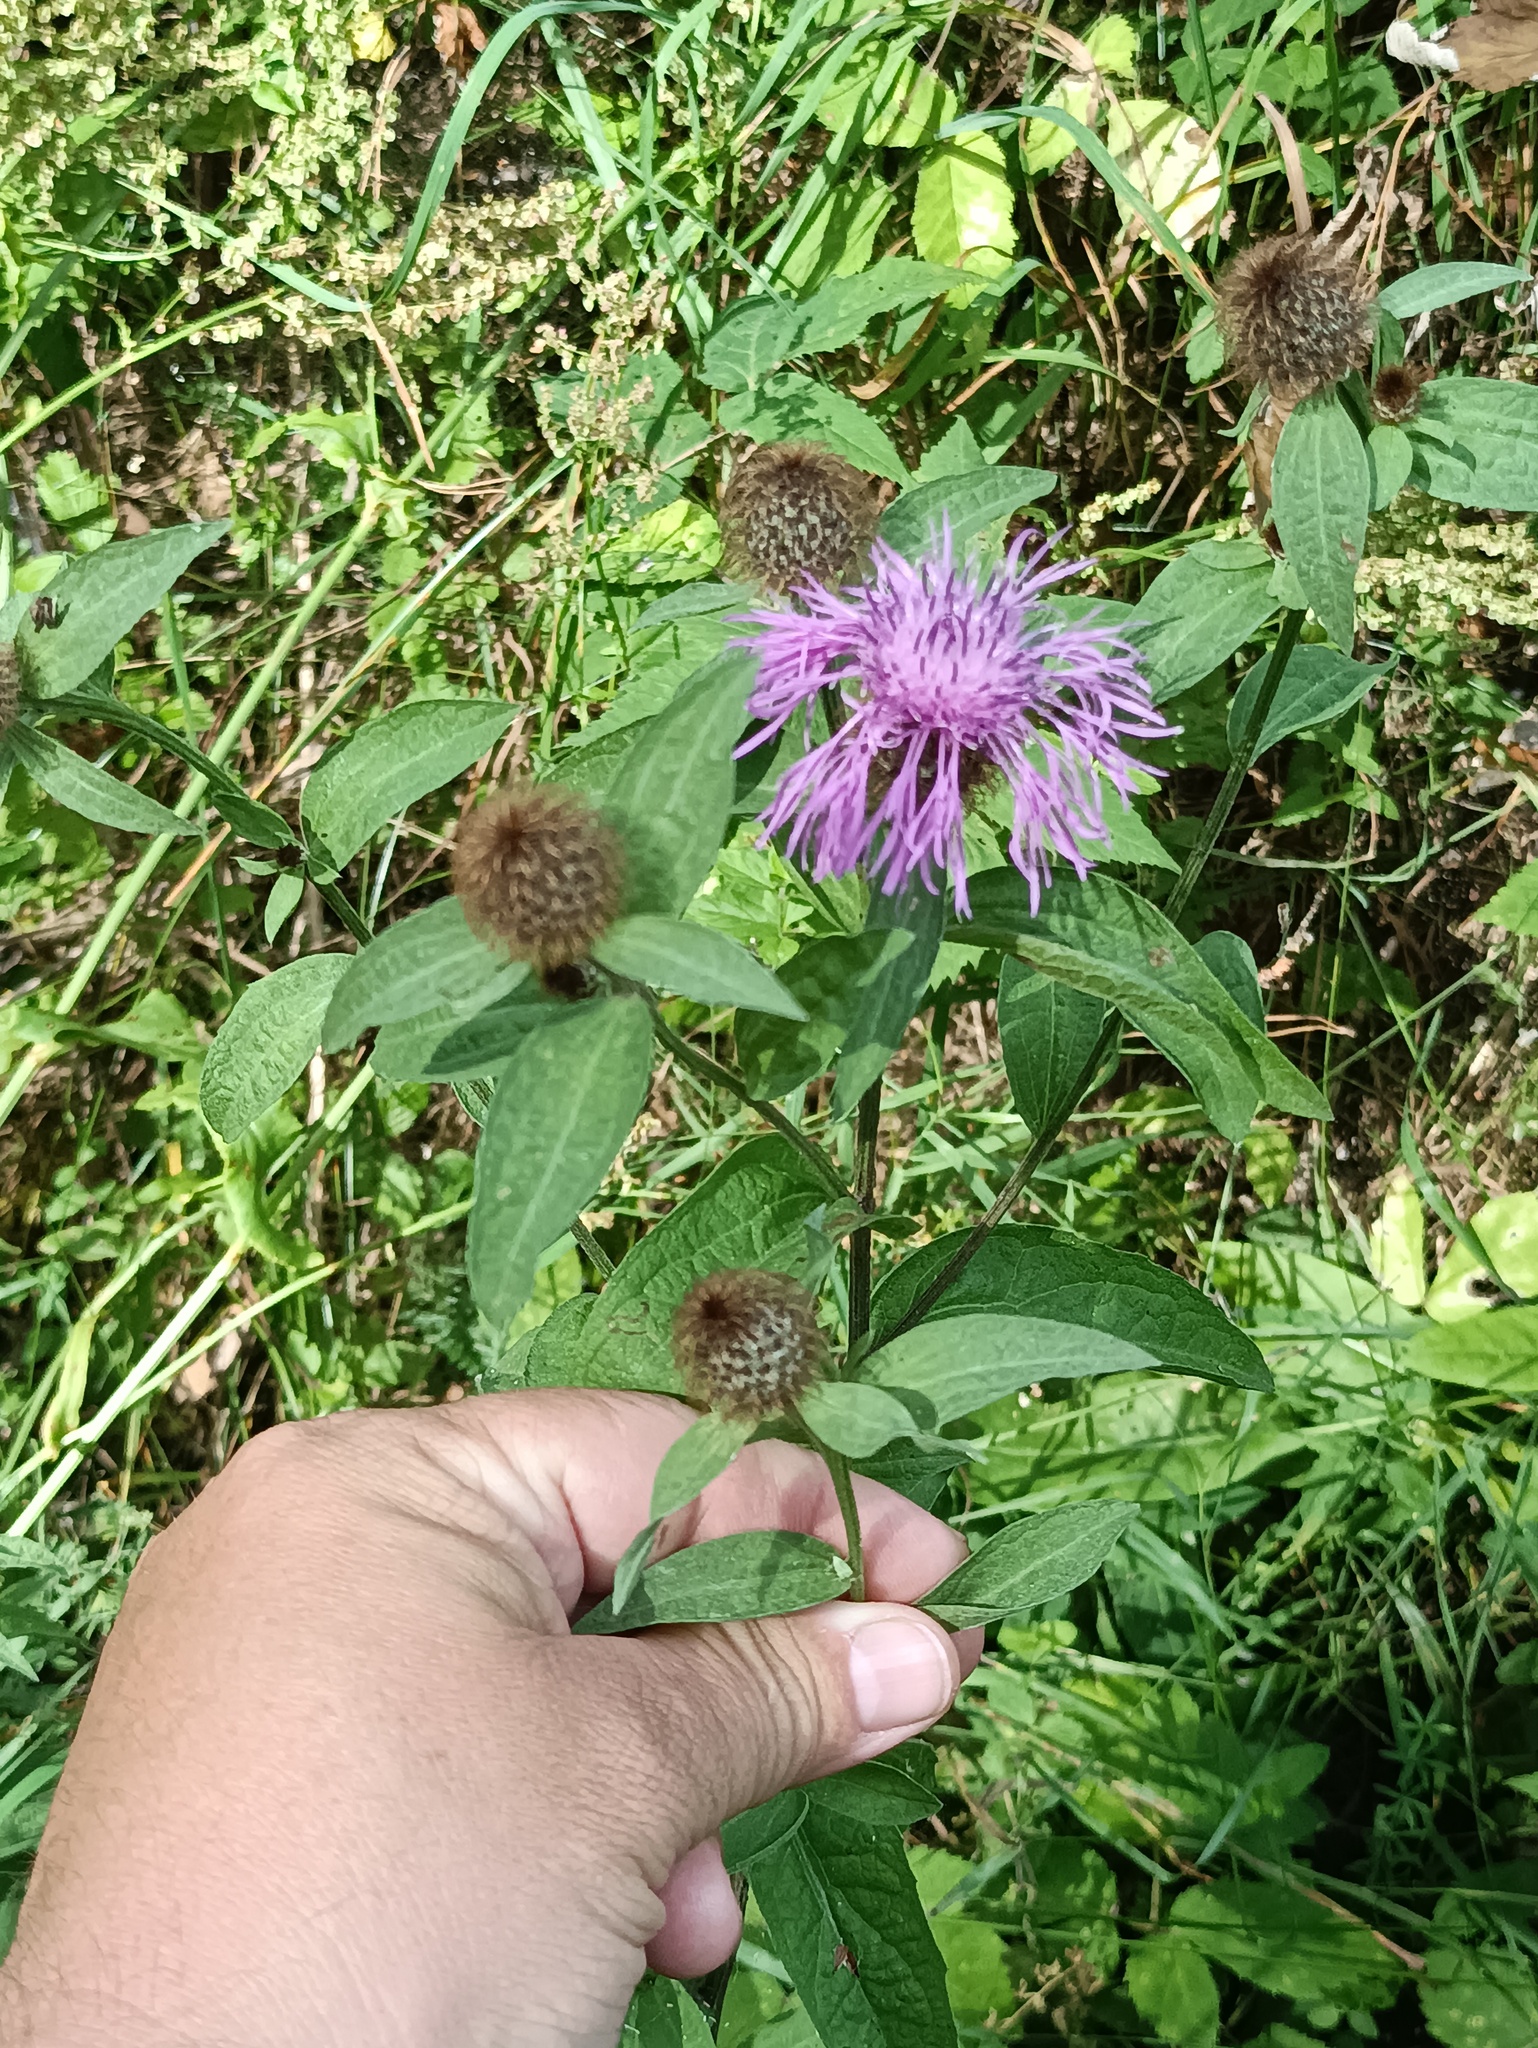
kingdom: Plantae
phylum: Tracheophyta
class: Magnoliopsida
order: Asterales
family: Asteraceae
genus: Centaurea
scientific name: Centaurea phrygia
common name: Wig knapweed
